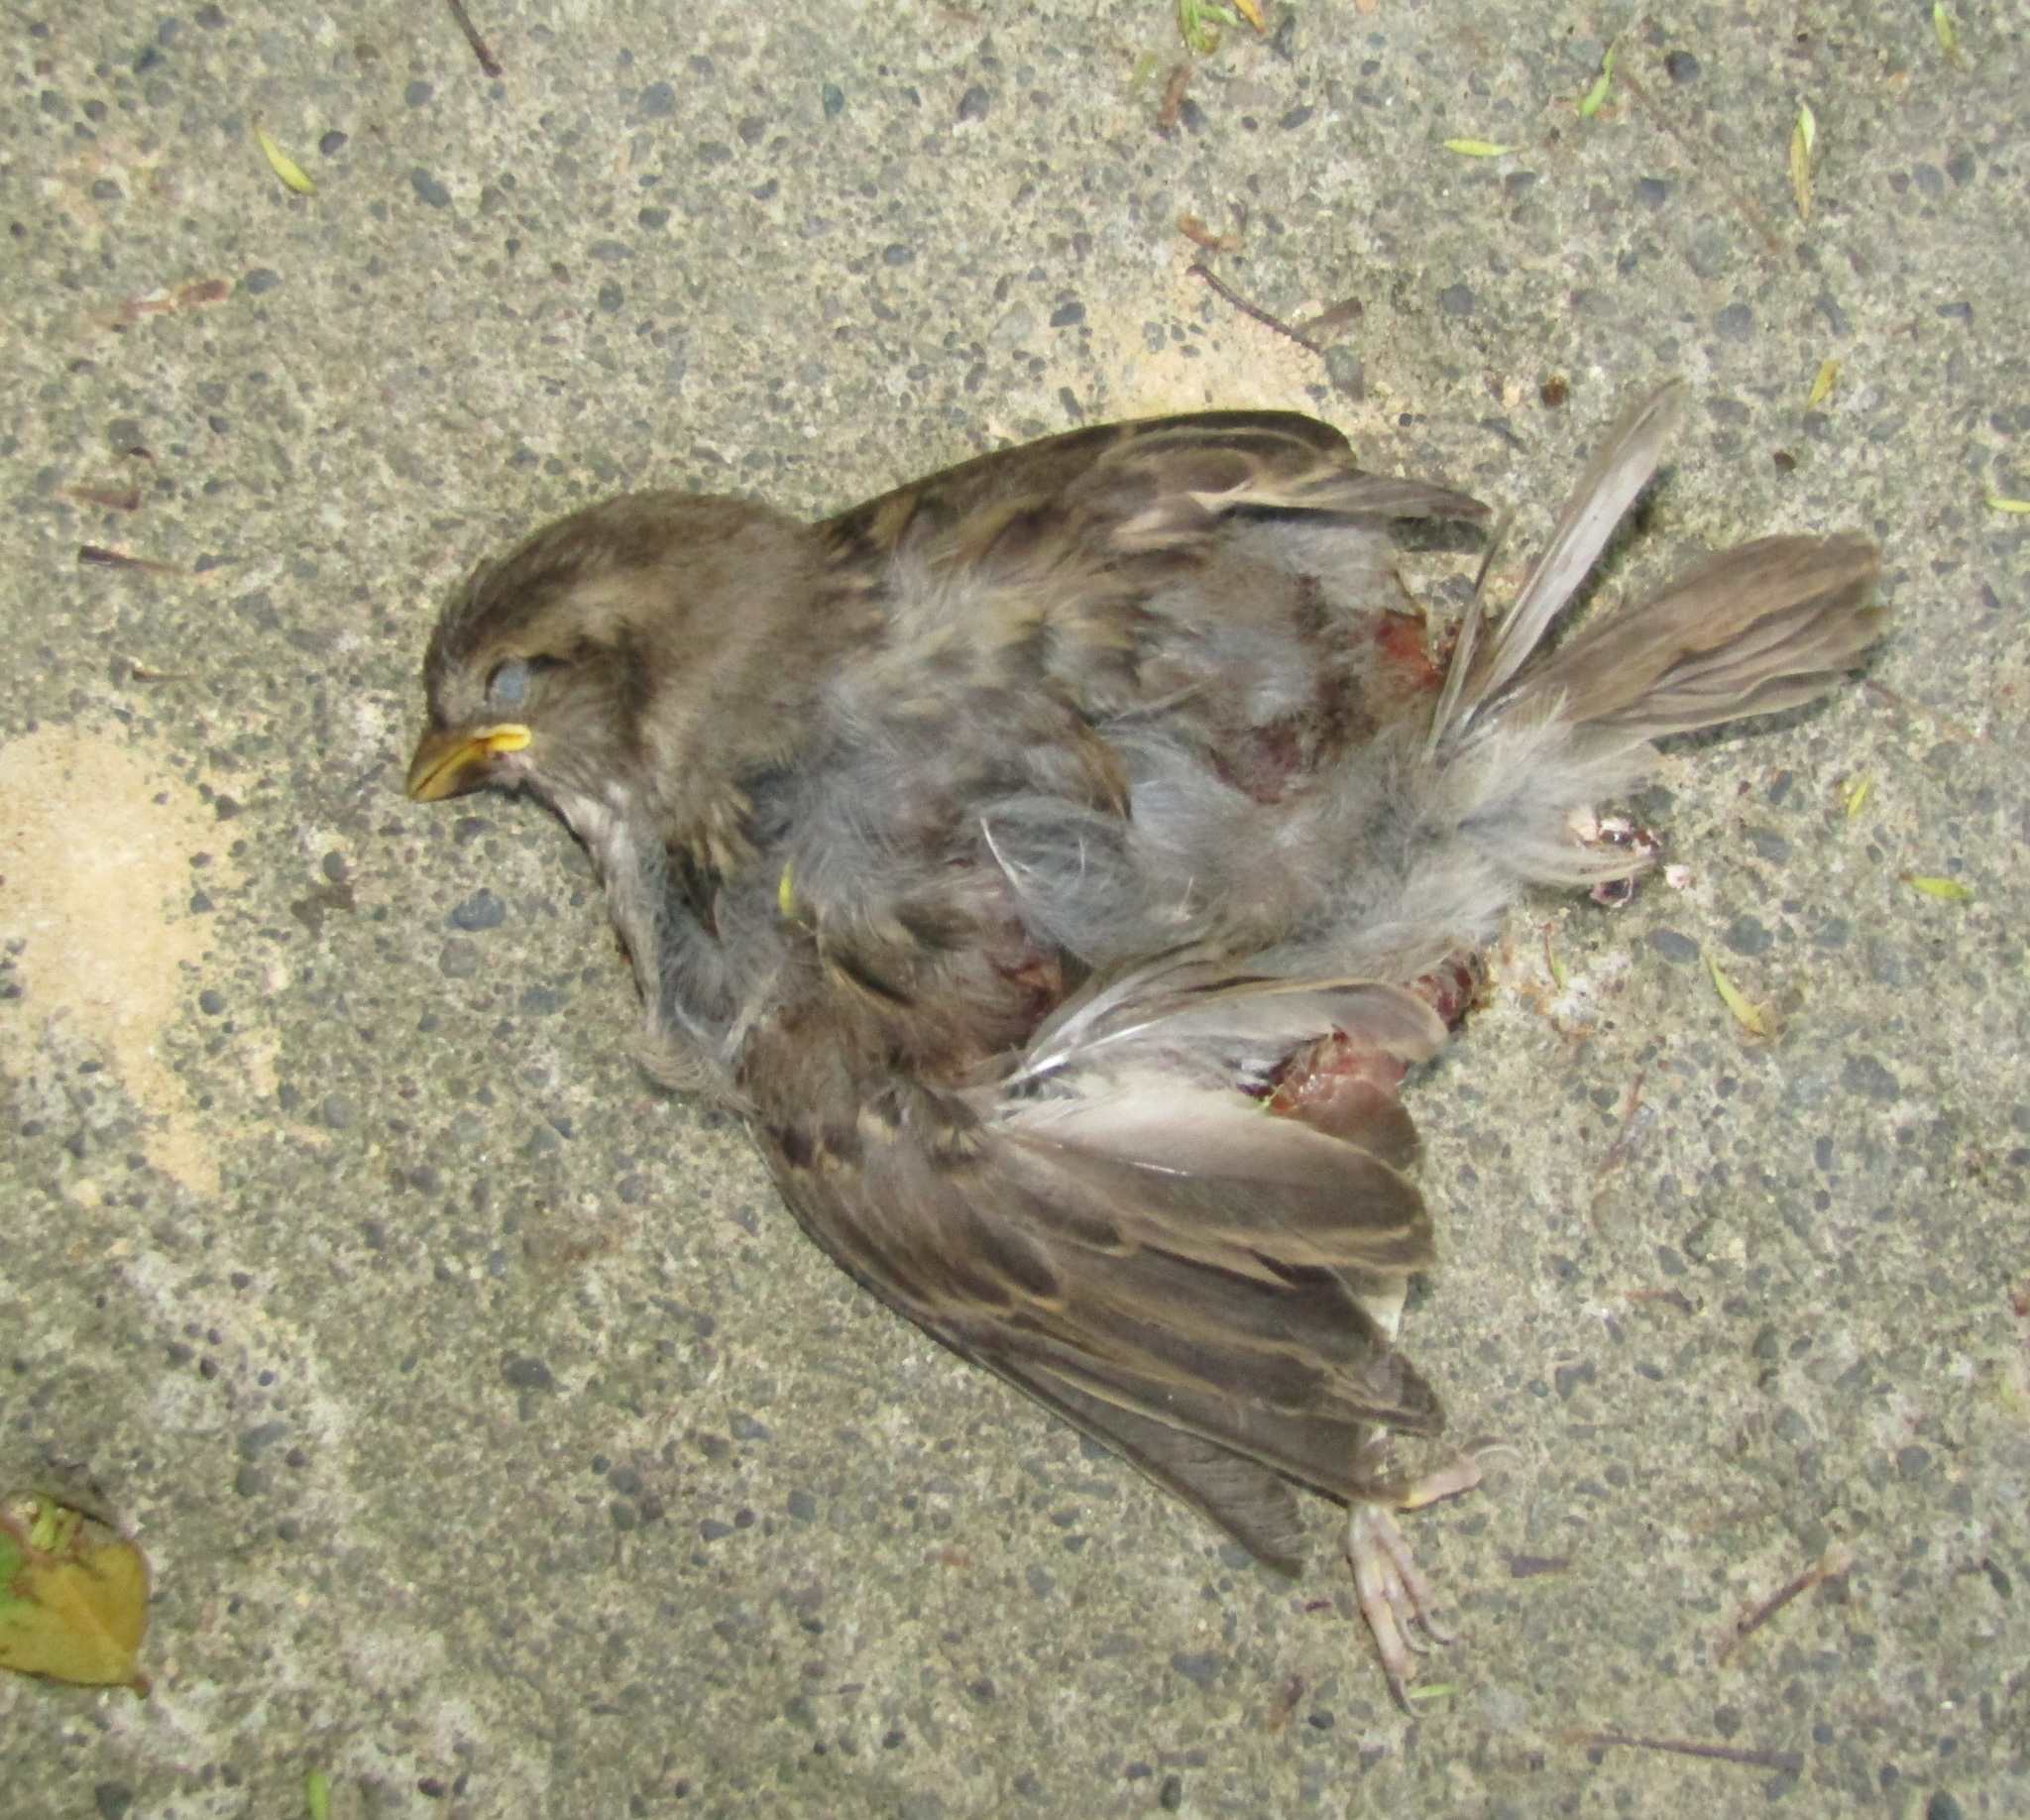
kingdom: Animalia
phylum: Chordata
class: Aves
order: Passeriformes
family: Passeridae
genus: Passer
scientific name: Passer domesticus
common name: House sparrow
